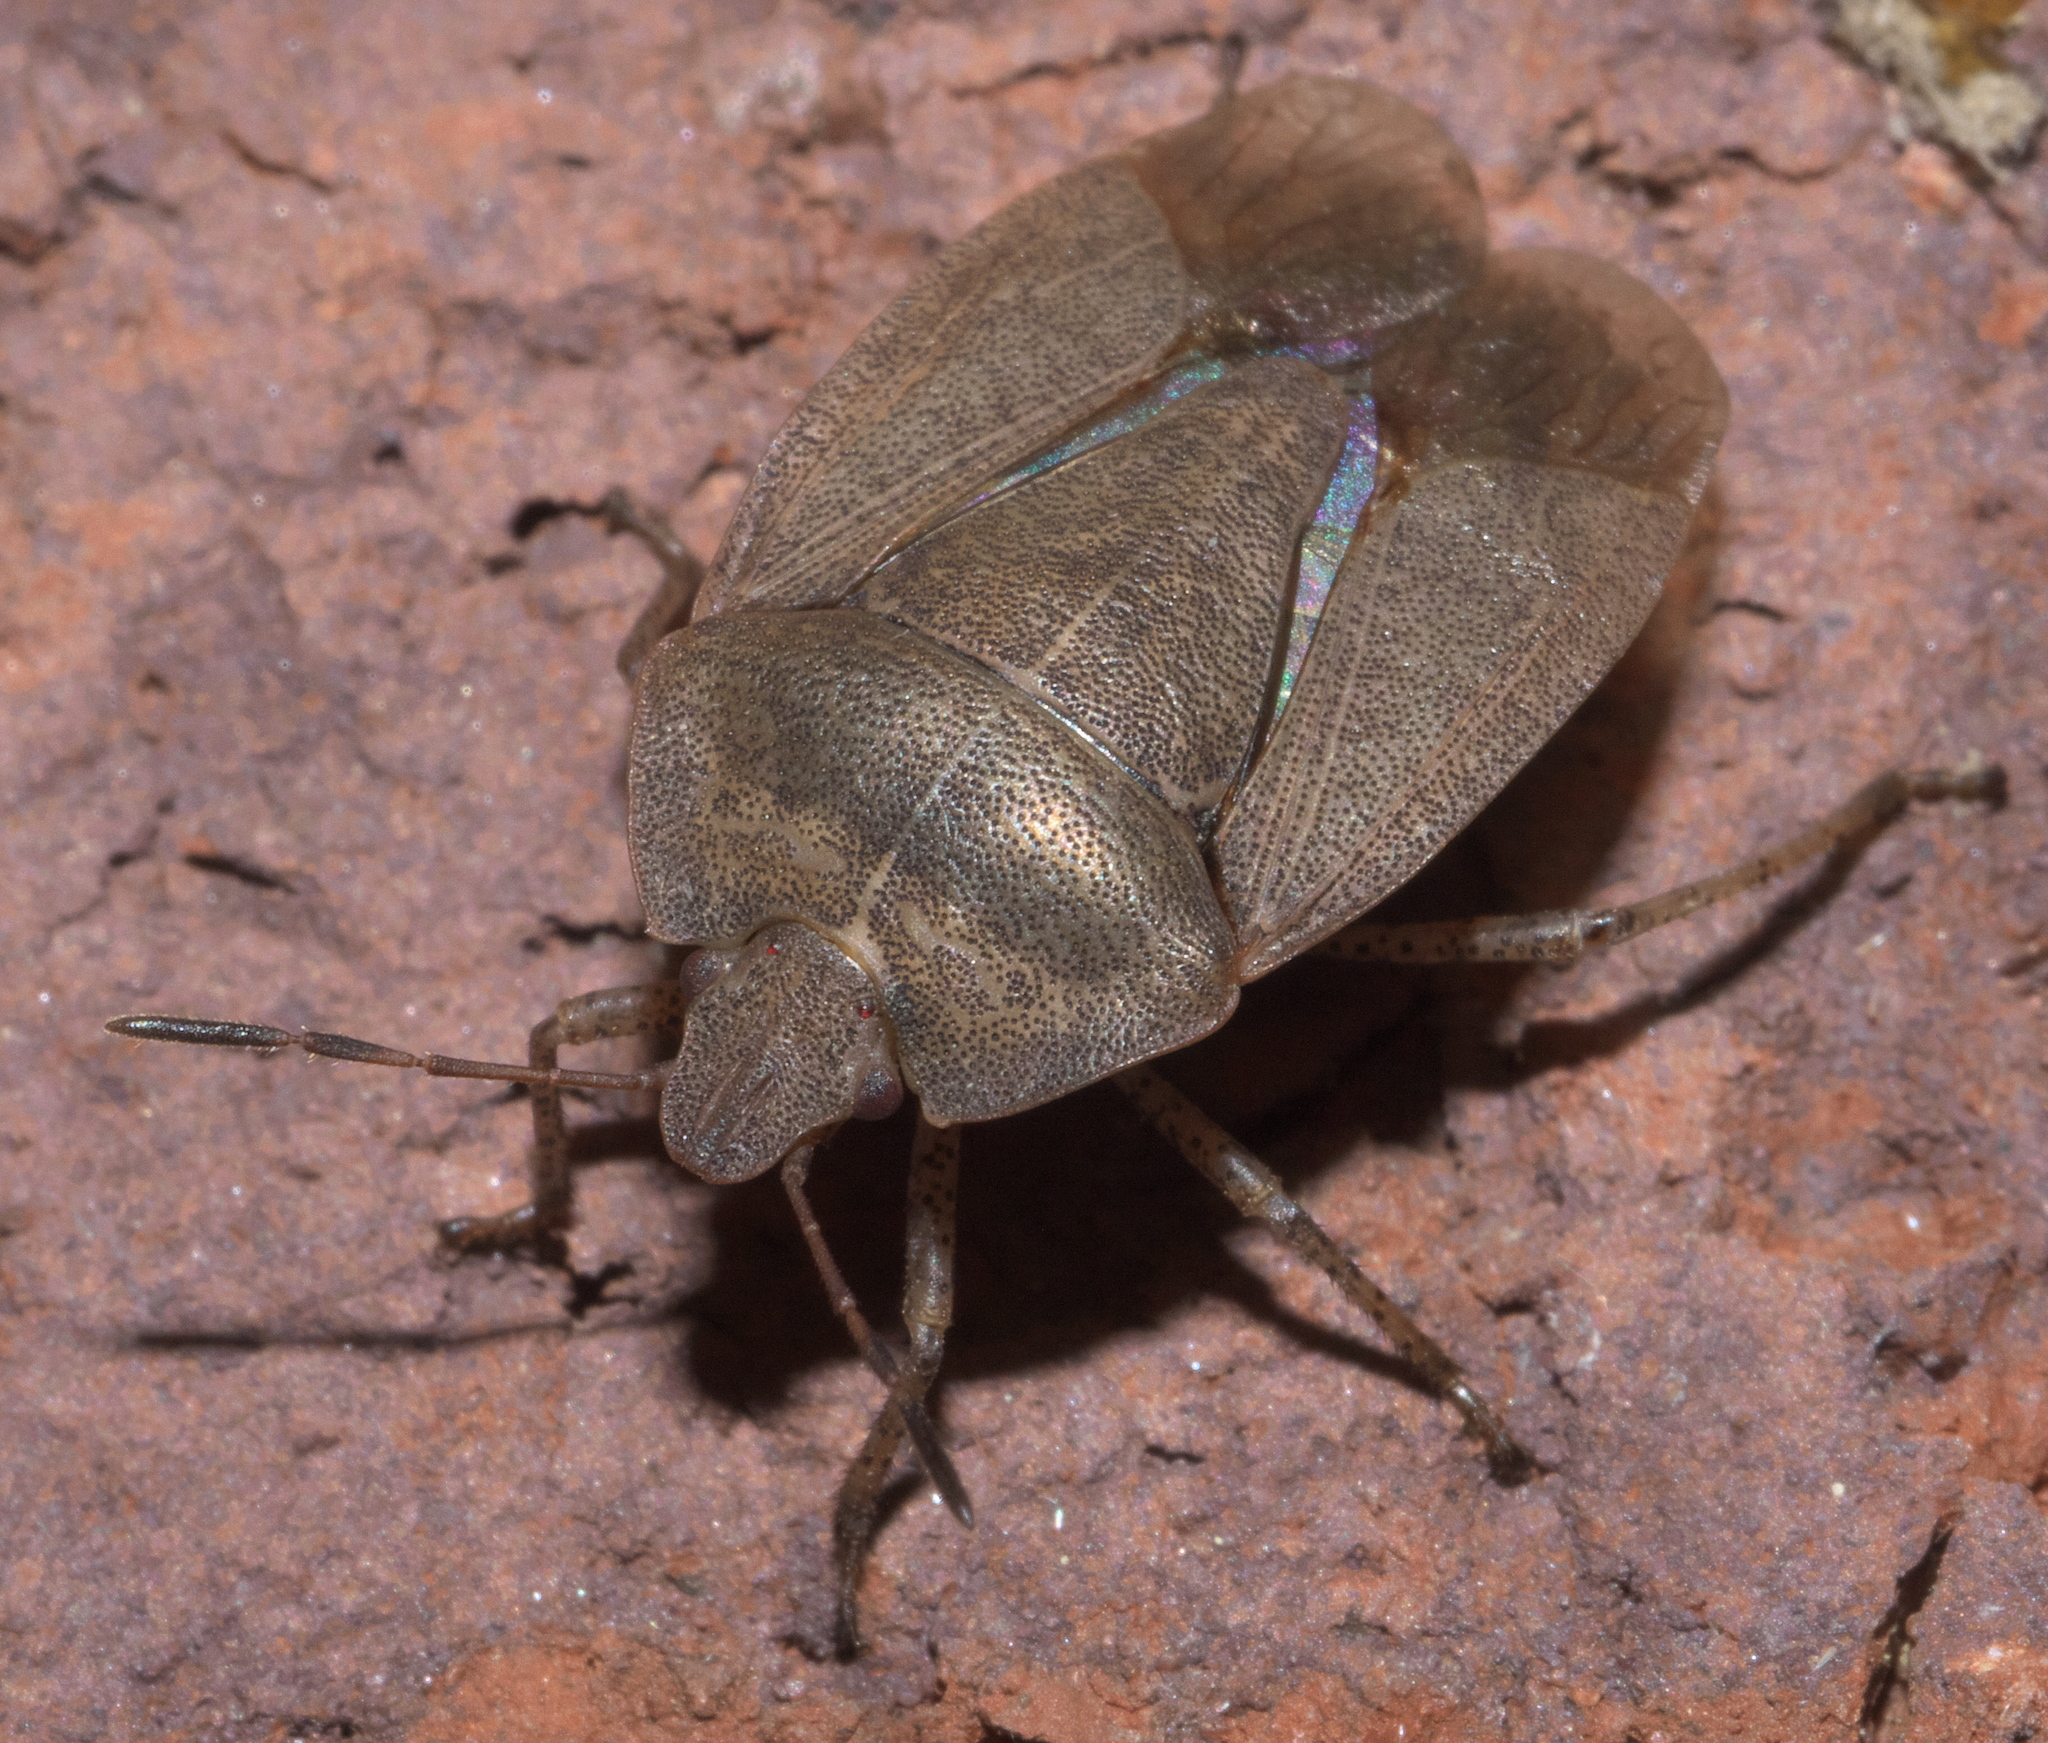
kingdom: Animalia
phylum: Arthropoda
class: Insecta
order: Hemiptera
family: Pentatomidae
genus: Menecles
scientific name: Menecles insertus
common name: Elf shoe stink bug
